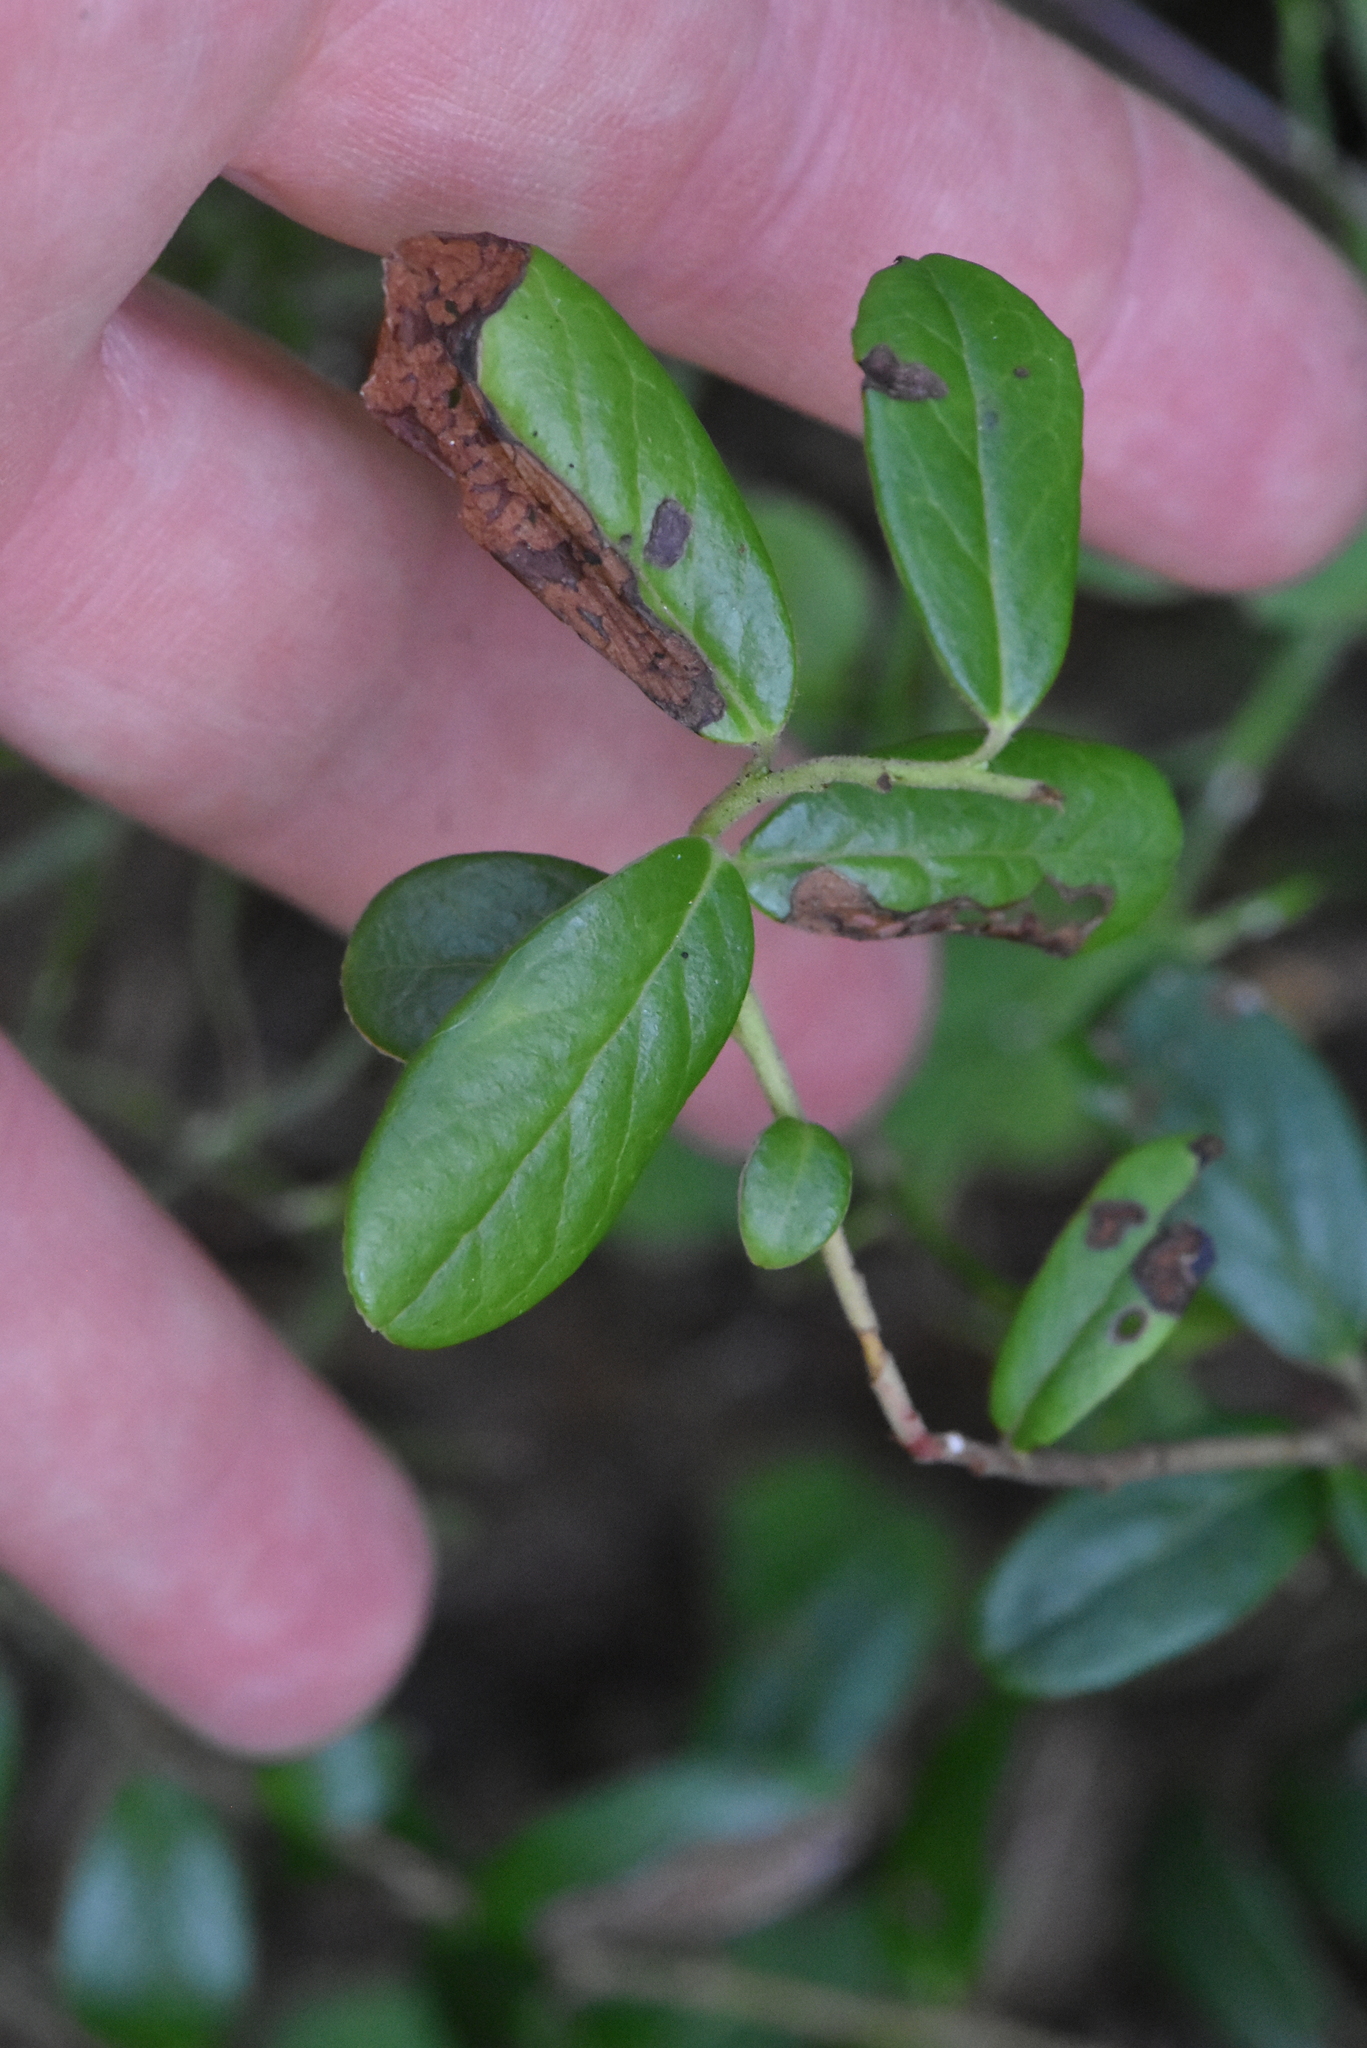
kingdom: Plantae
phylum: Tracheophyta
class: Magnoliopsida
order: Ericales
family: Ericaceae
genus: Vaccinium
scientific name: Vaccinium vitis-idaea
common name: Cowberry
